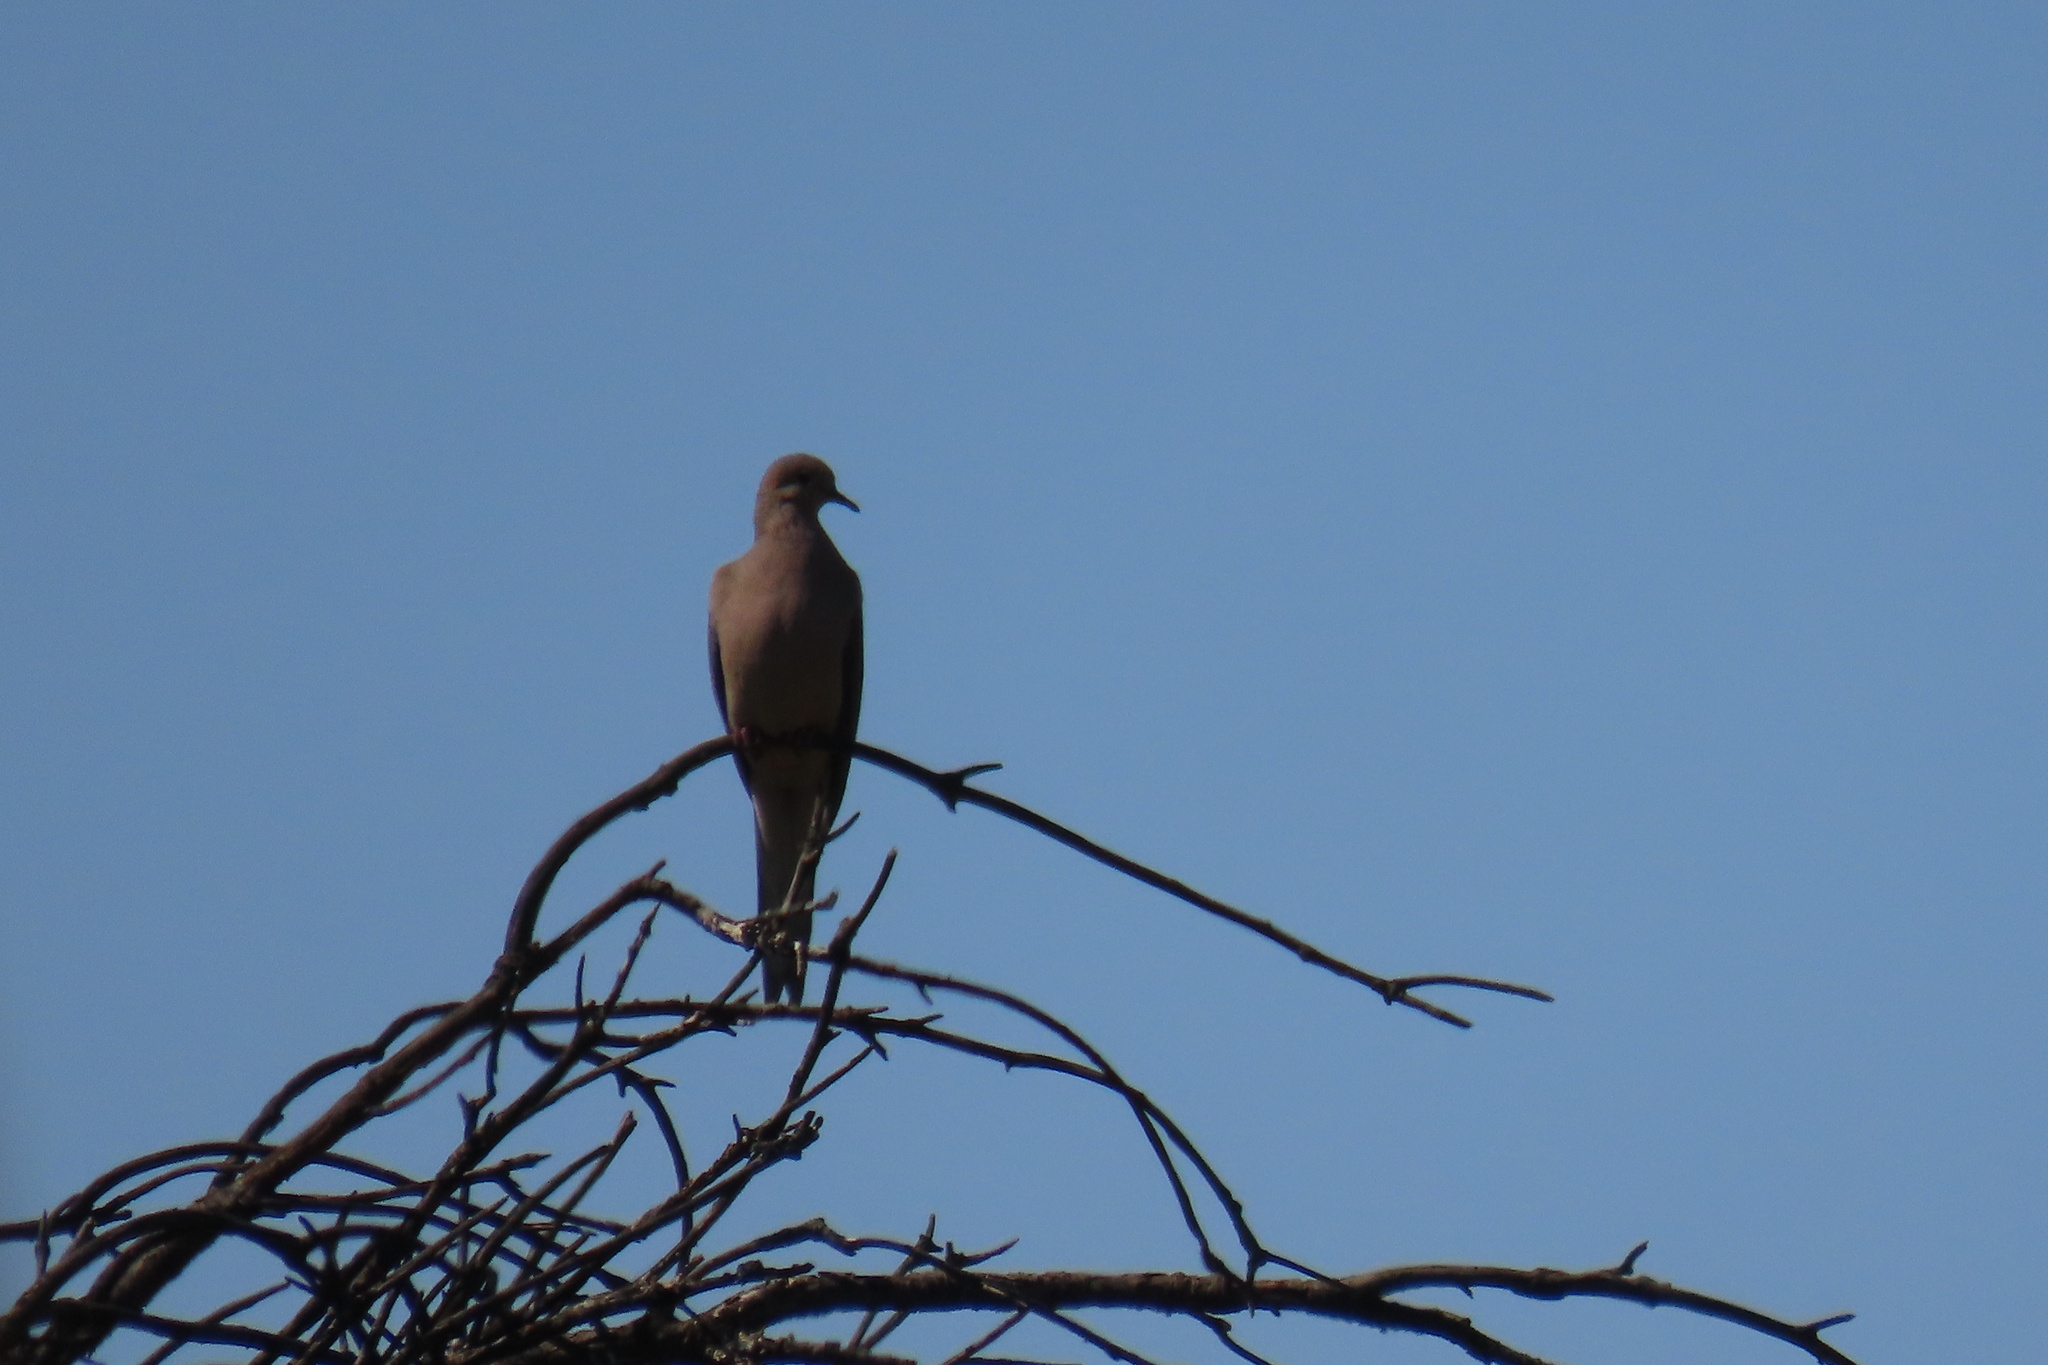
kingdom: Animalia
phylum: Chordata
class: Aves
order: Columbiformes
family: Columbidae
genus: Zenaida
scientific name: Zenaida macroura
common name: Mourning dove
